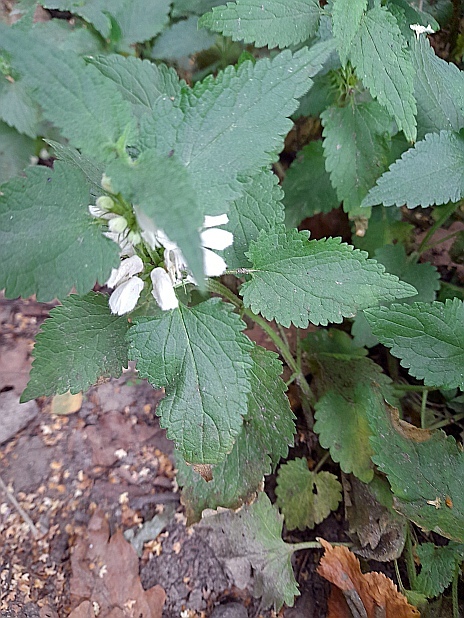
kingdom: Plantae
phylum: Tracheophyta
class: Magnoliopsida
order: Lamiales
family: Lamiaceae
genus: Lamium
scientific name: Lamium album
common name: White dead-nettle
